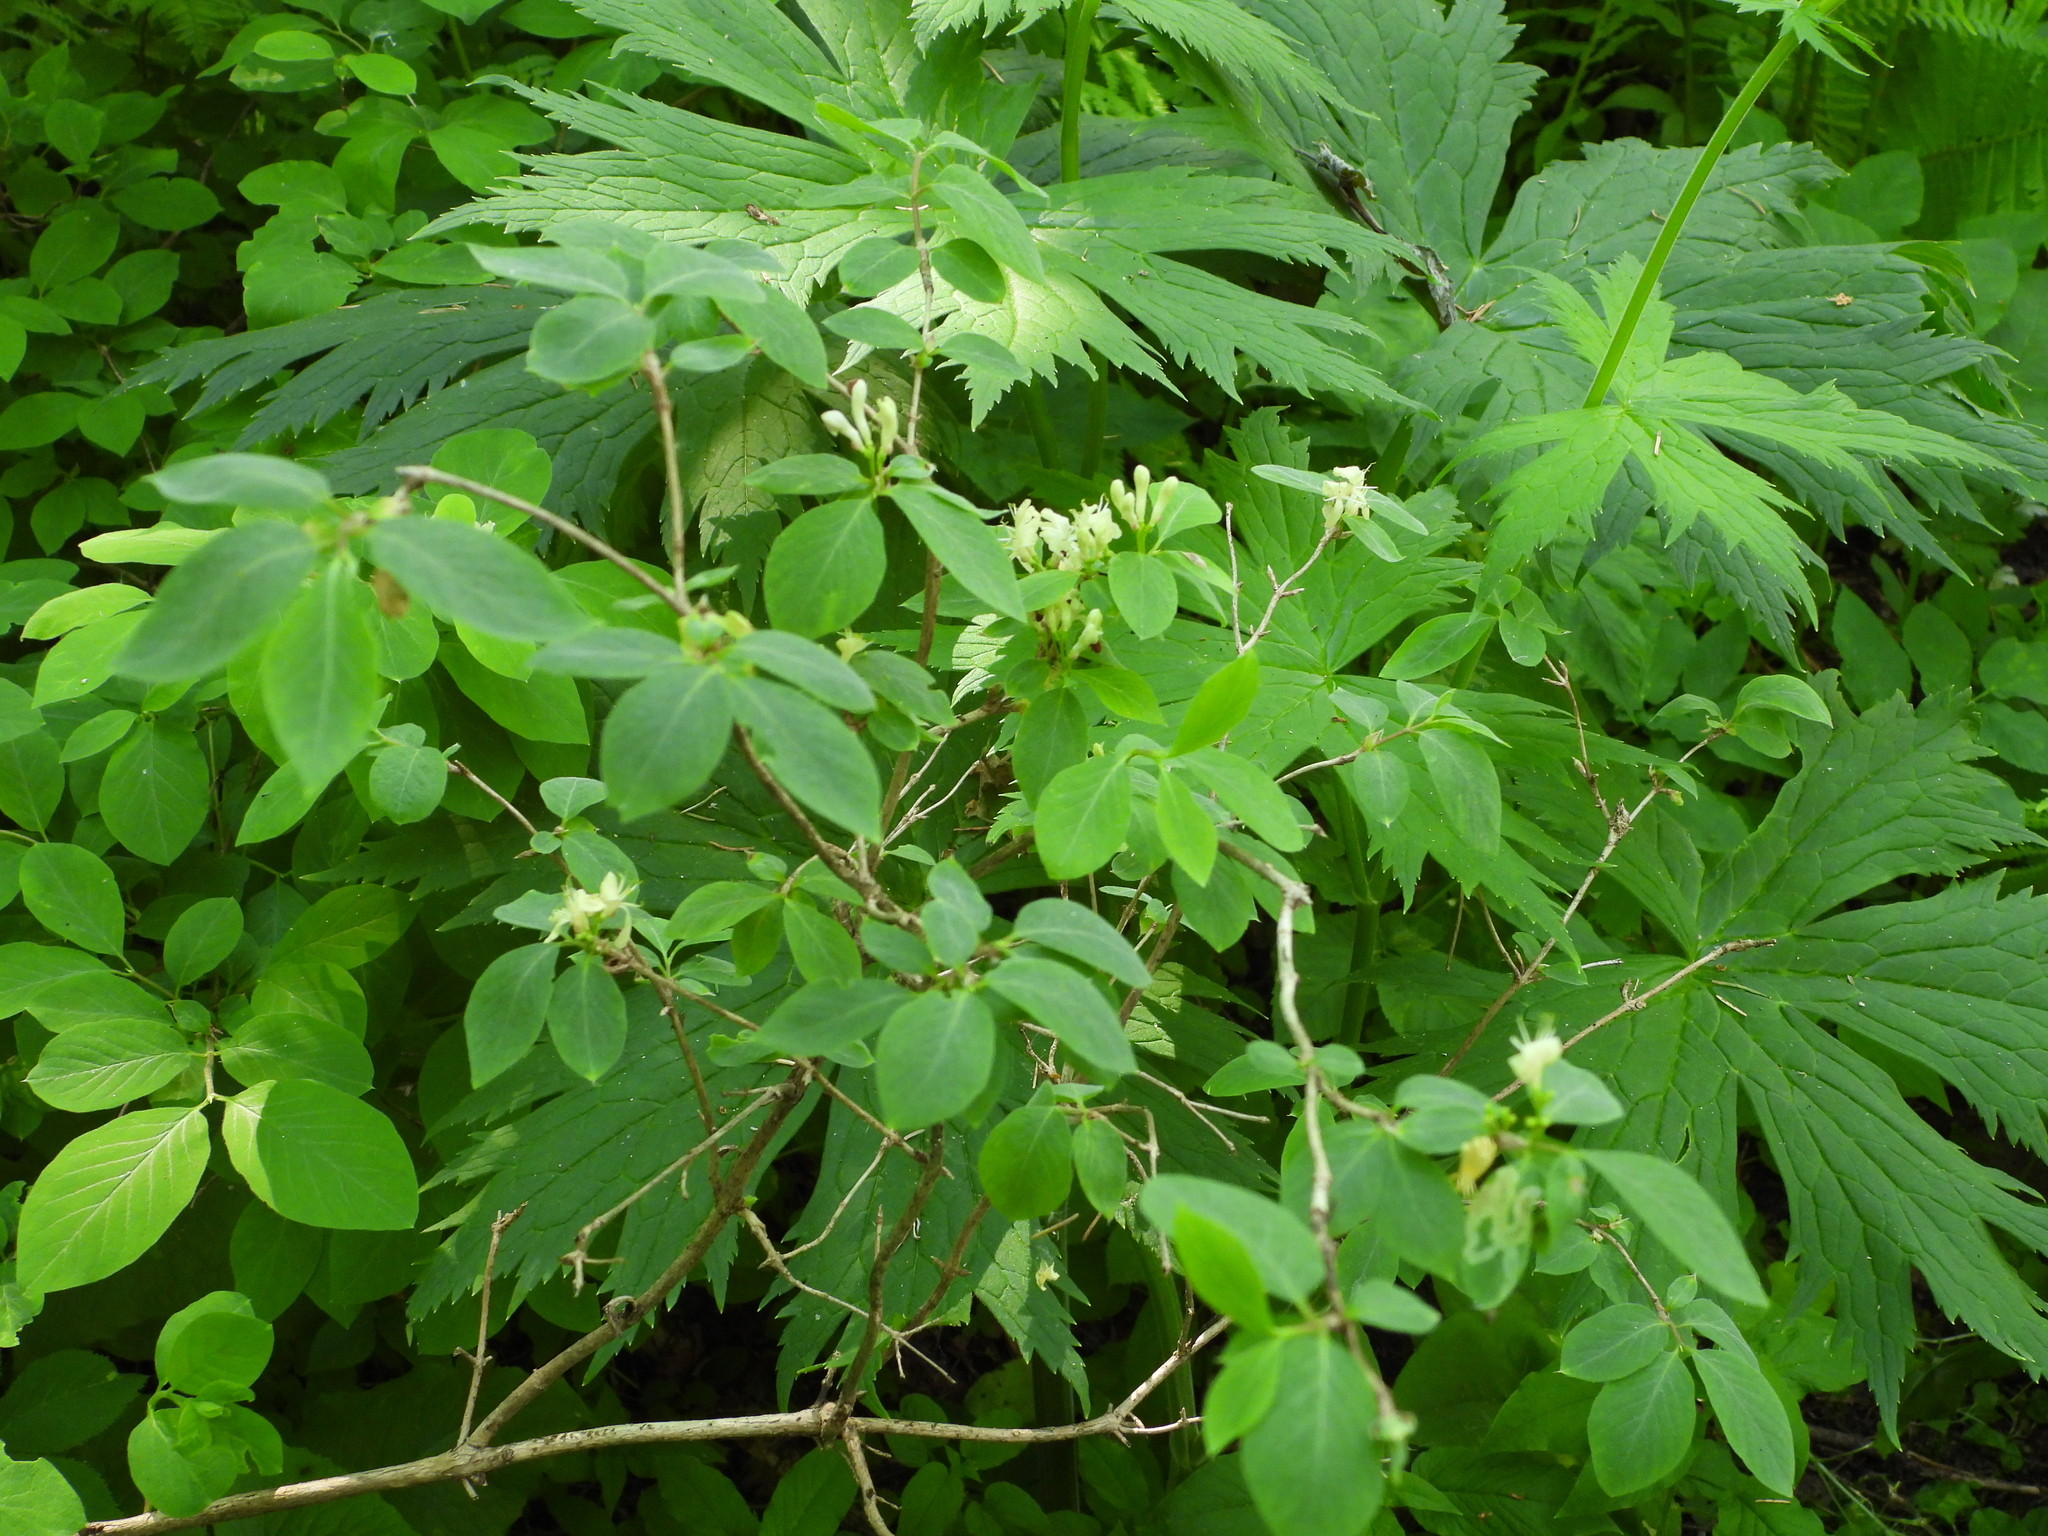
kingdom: Plantae
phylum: Tracheophyta
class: Magnoliopsida
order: Dipsacales
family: Caprifoliaceae
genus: Lonicera
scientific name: Lonicera xylosteum
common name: Fly honeysuckle
